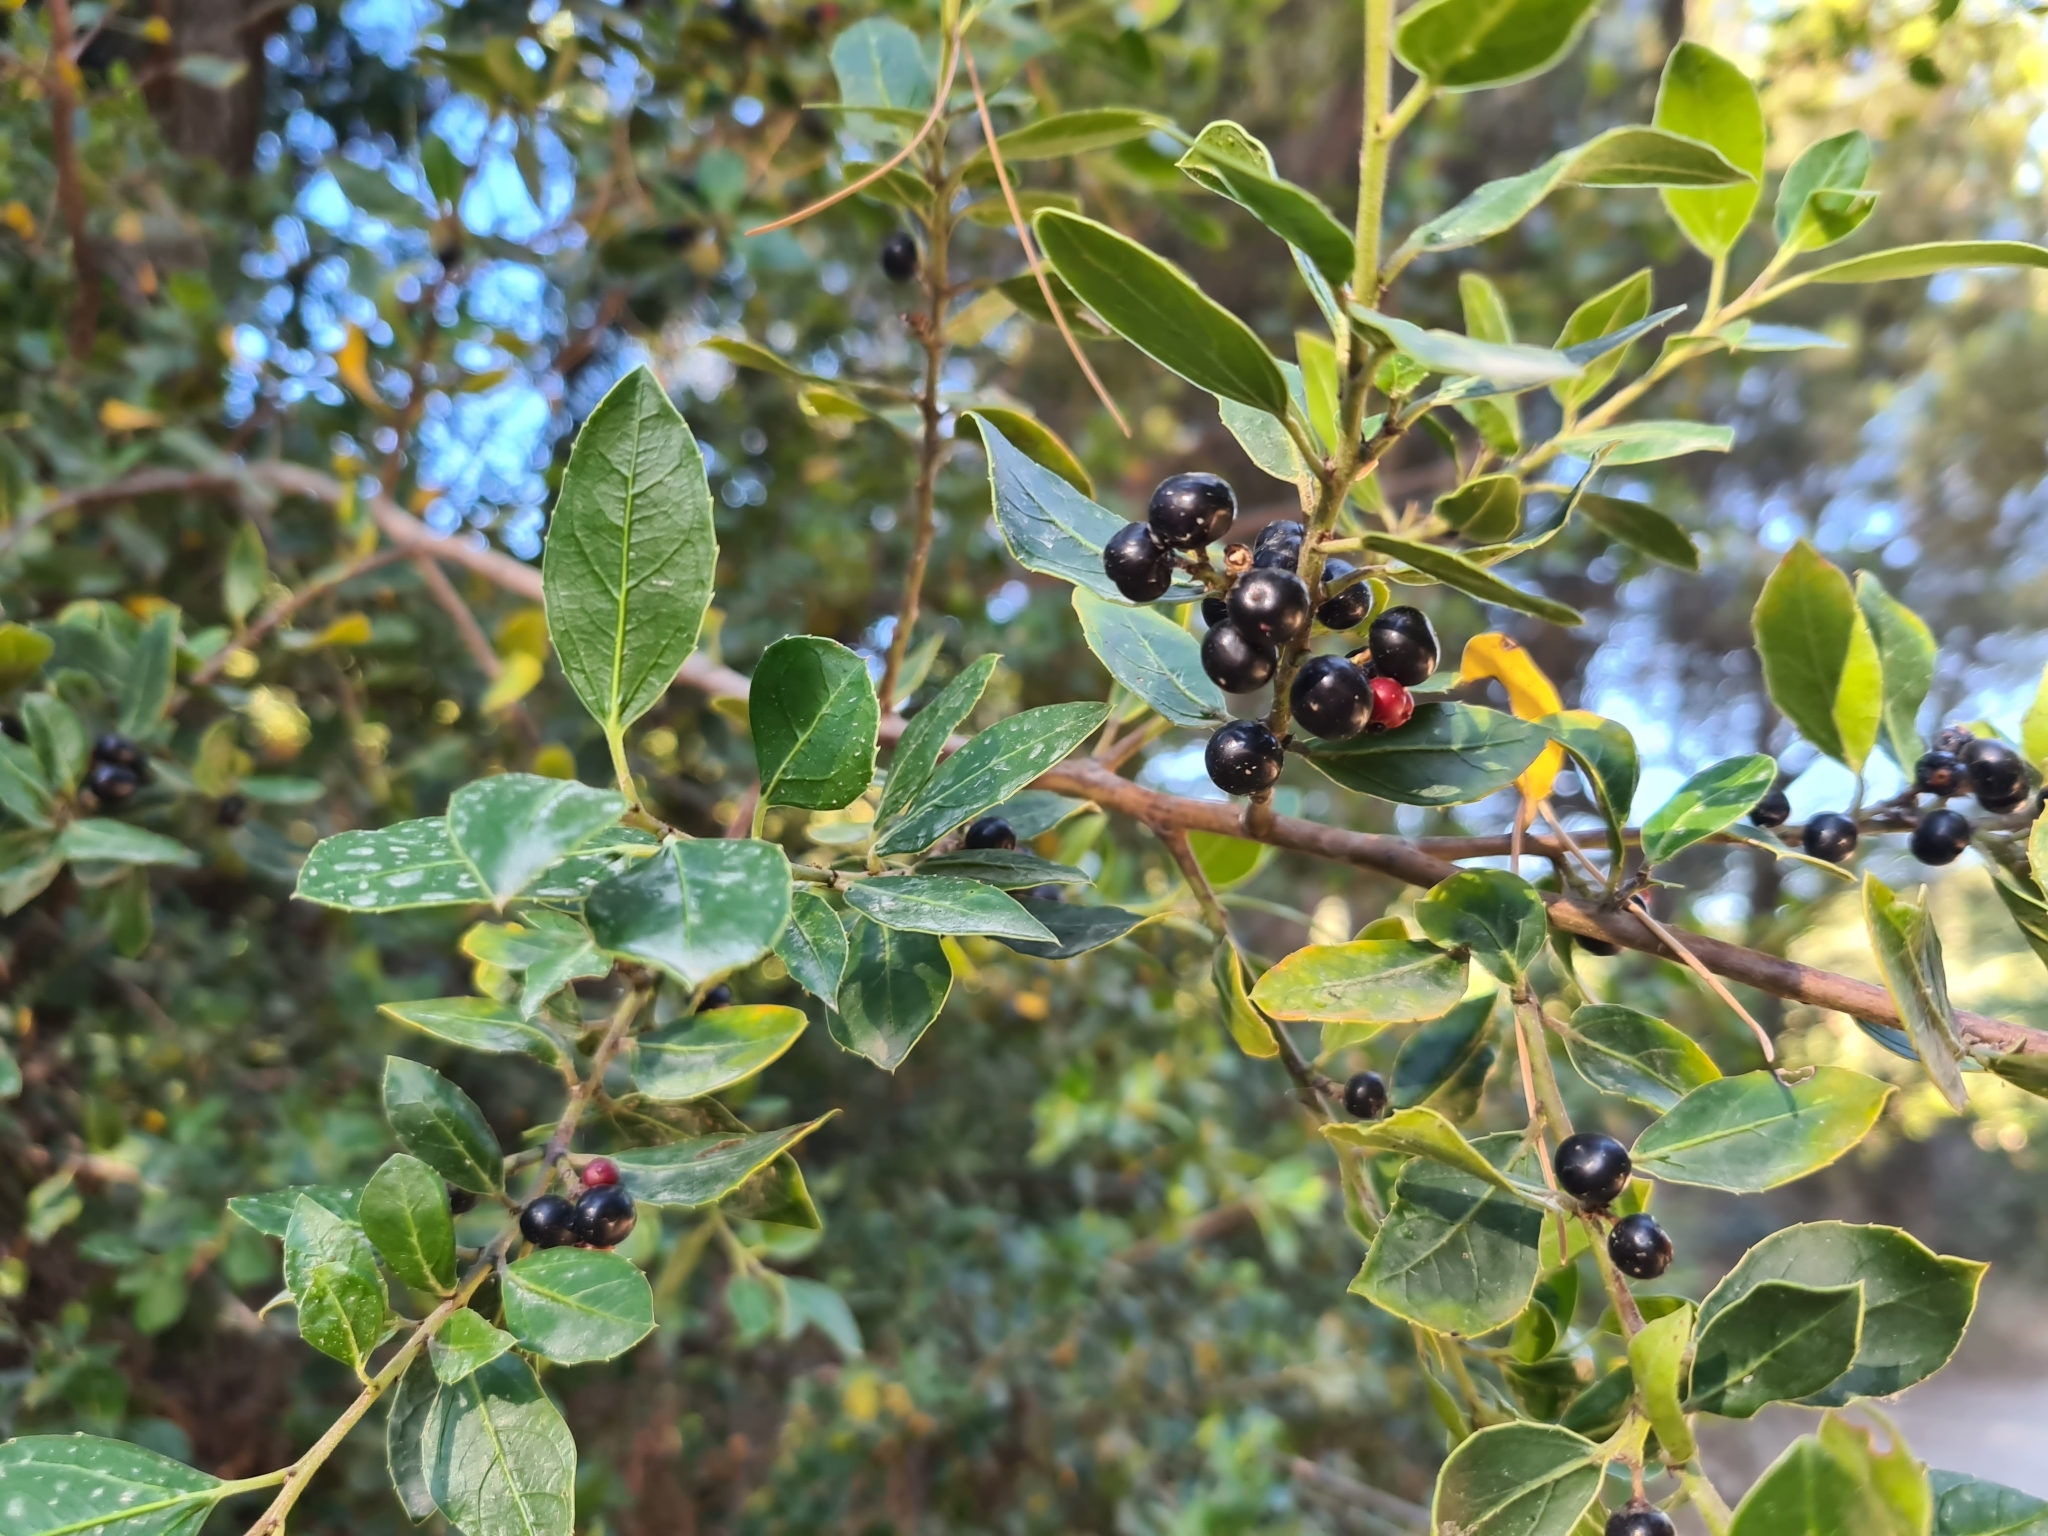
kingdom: Plantae
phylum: Tracheophyta
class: Magnoliopsida
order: Rosales
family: Rhamnaceae
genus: Rhamnus
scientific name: Rhamnus alaternus
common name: Mediterranean buckthorn
